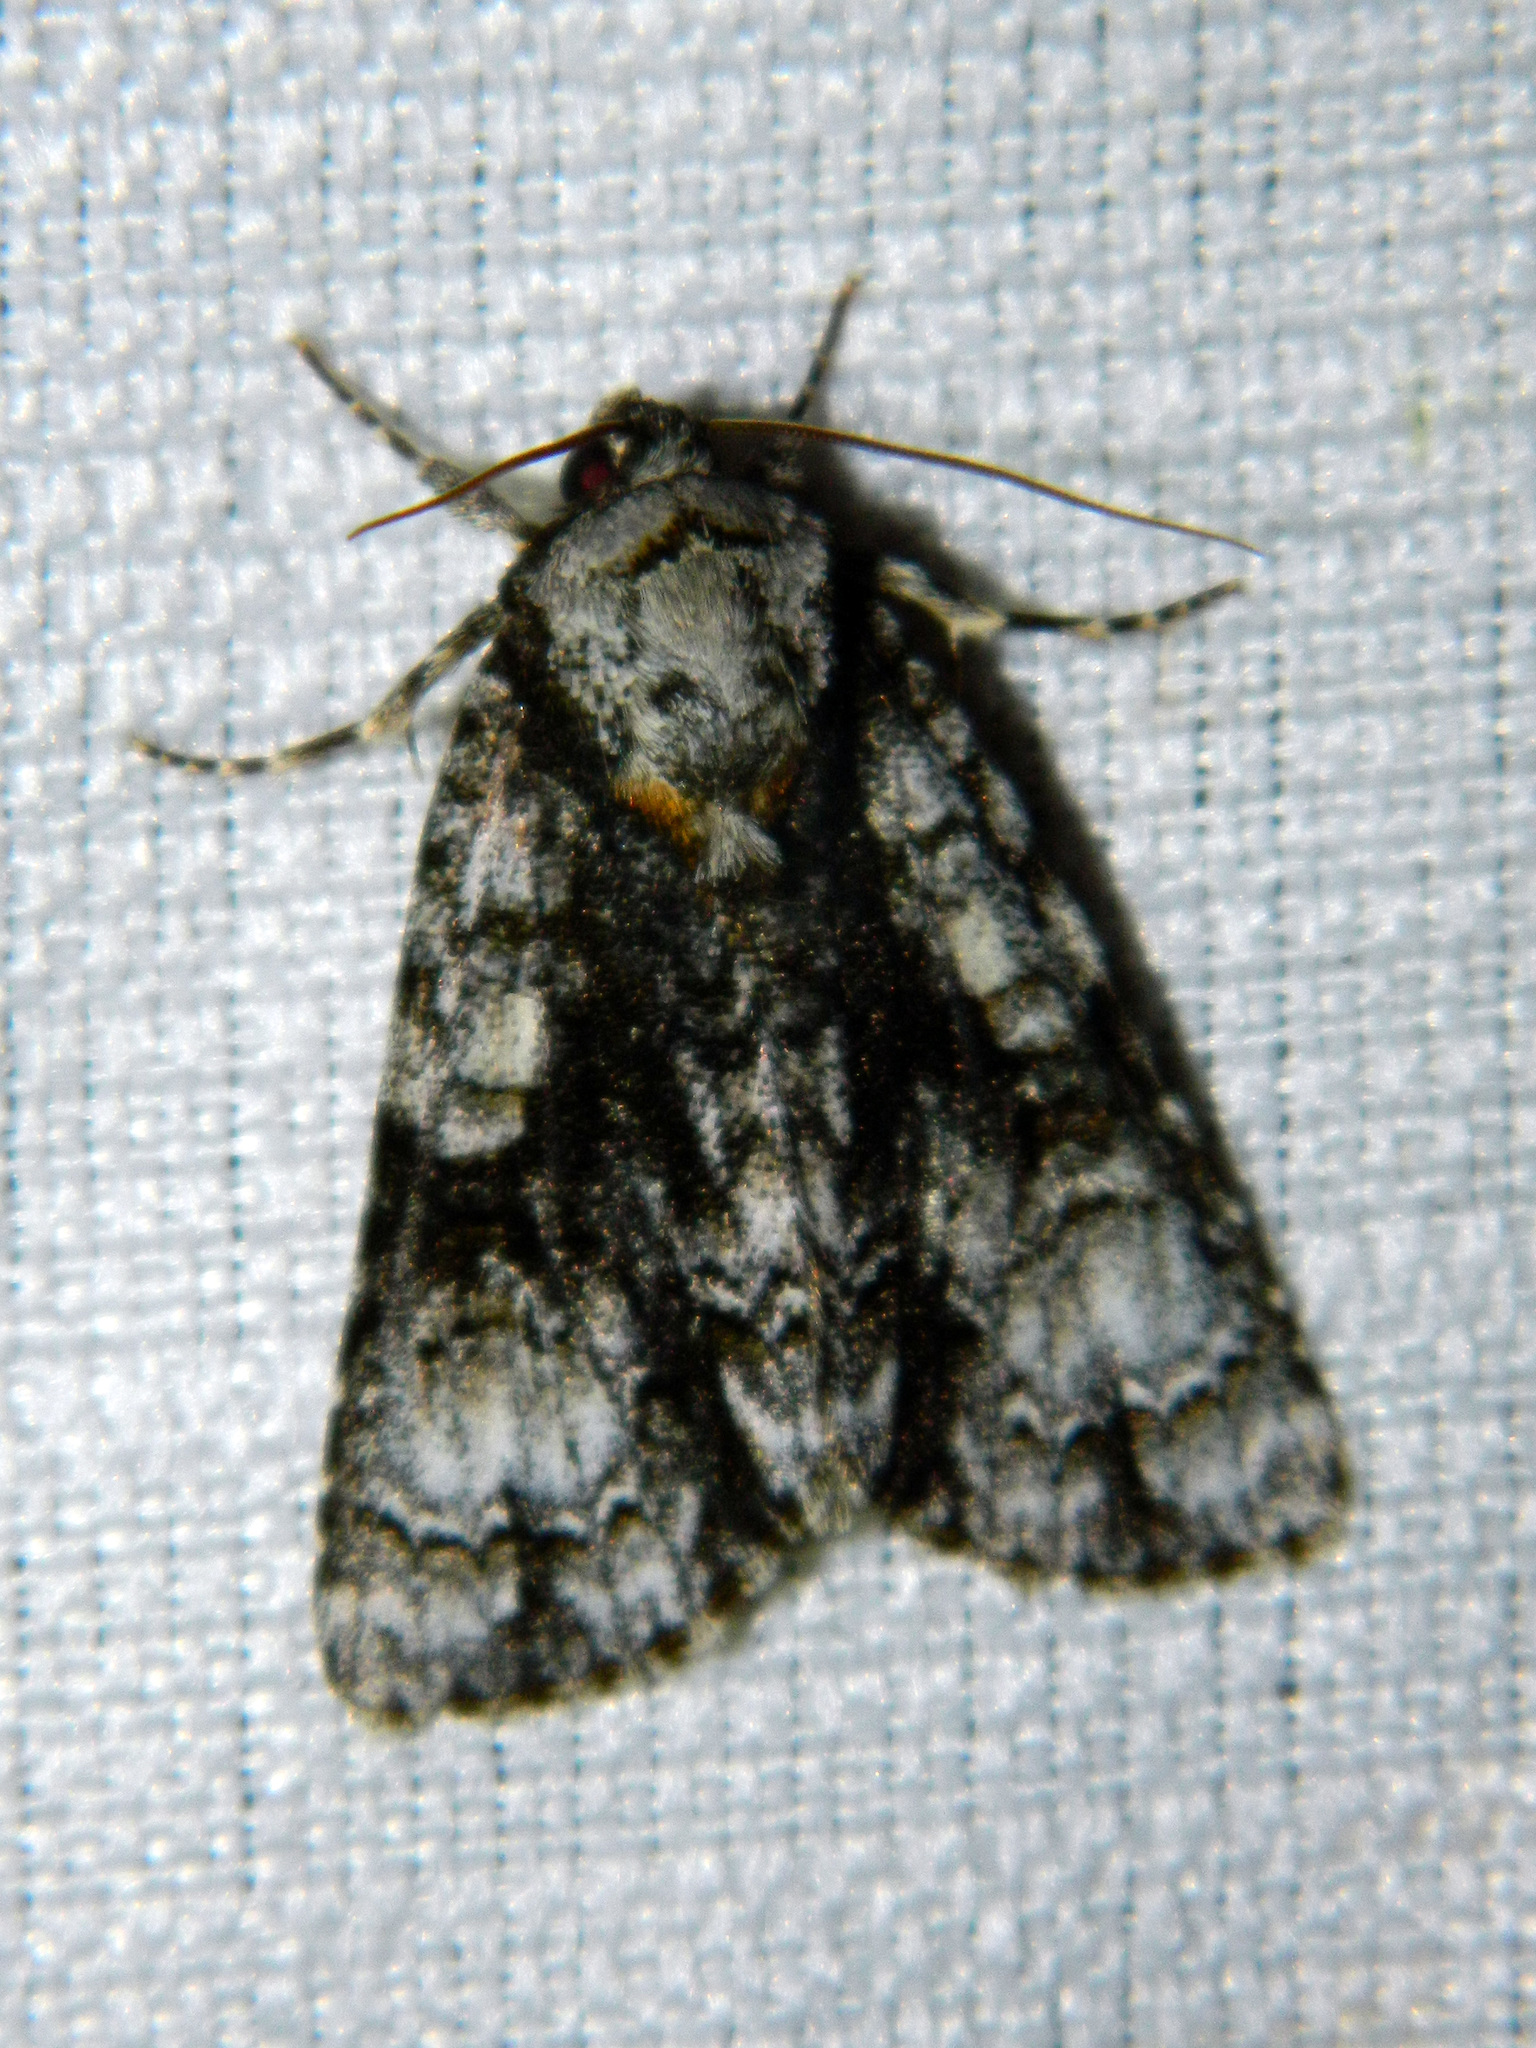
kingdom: Animalia
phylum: Arthropoda
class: Insecta
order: Lepidoptera
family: Noctuidae
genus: Acronicta
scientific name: Acronicta superans
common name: Splendid dagger
